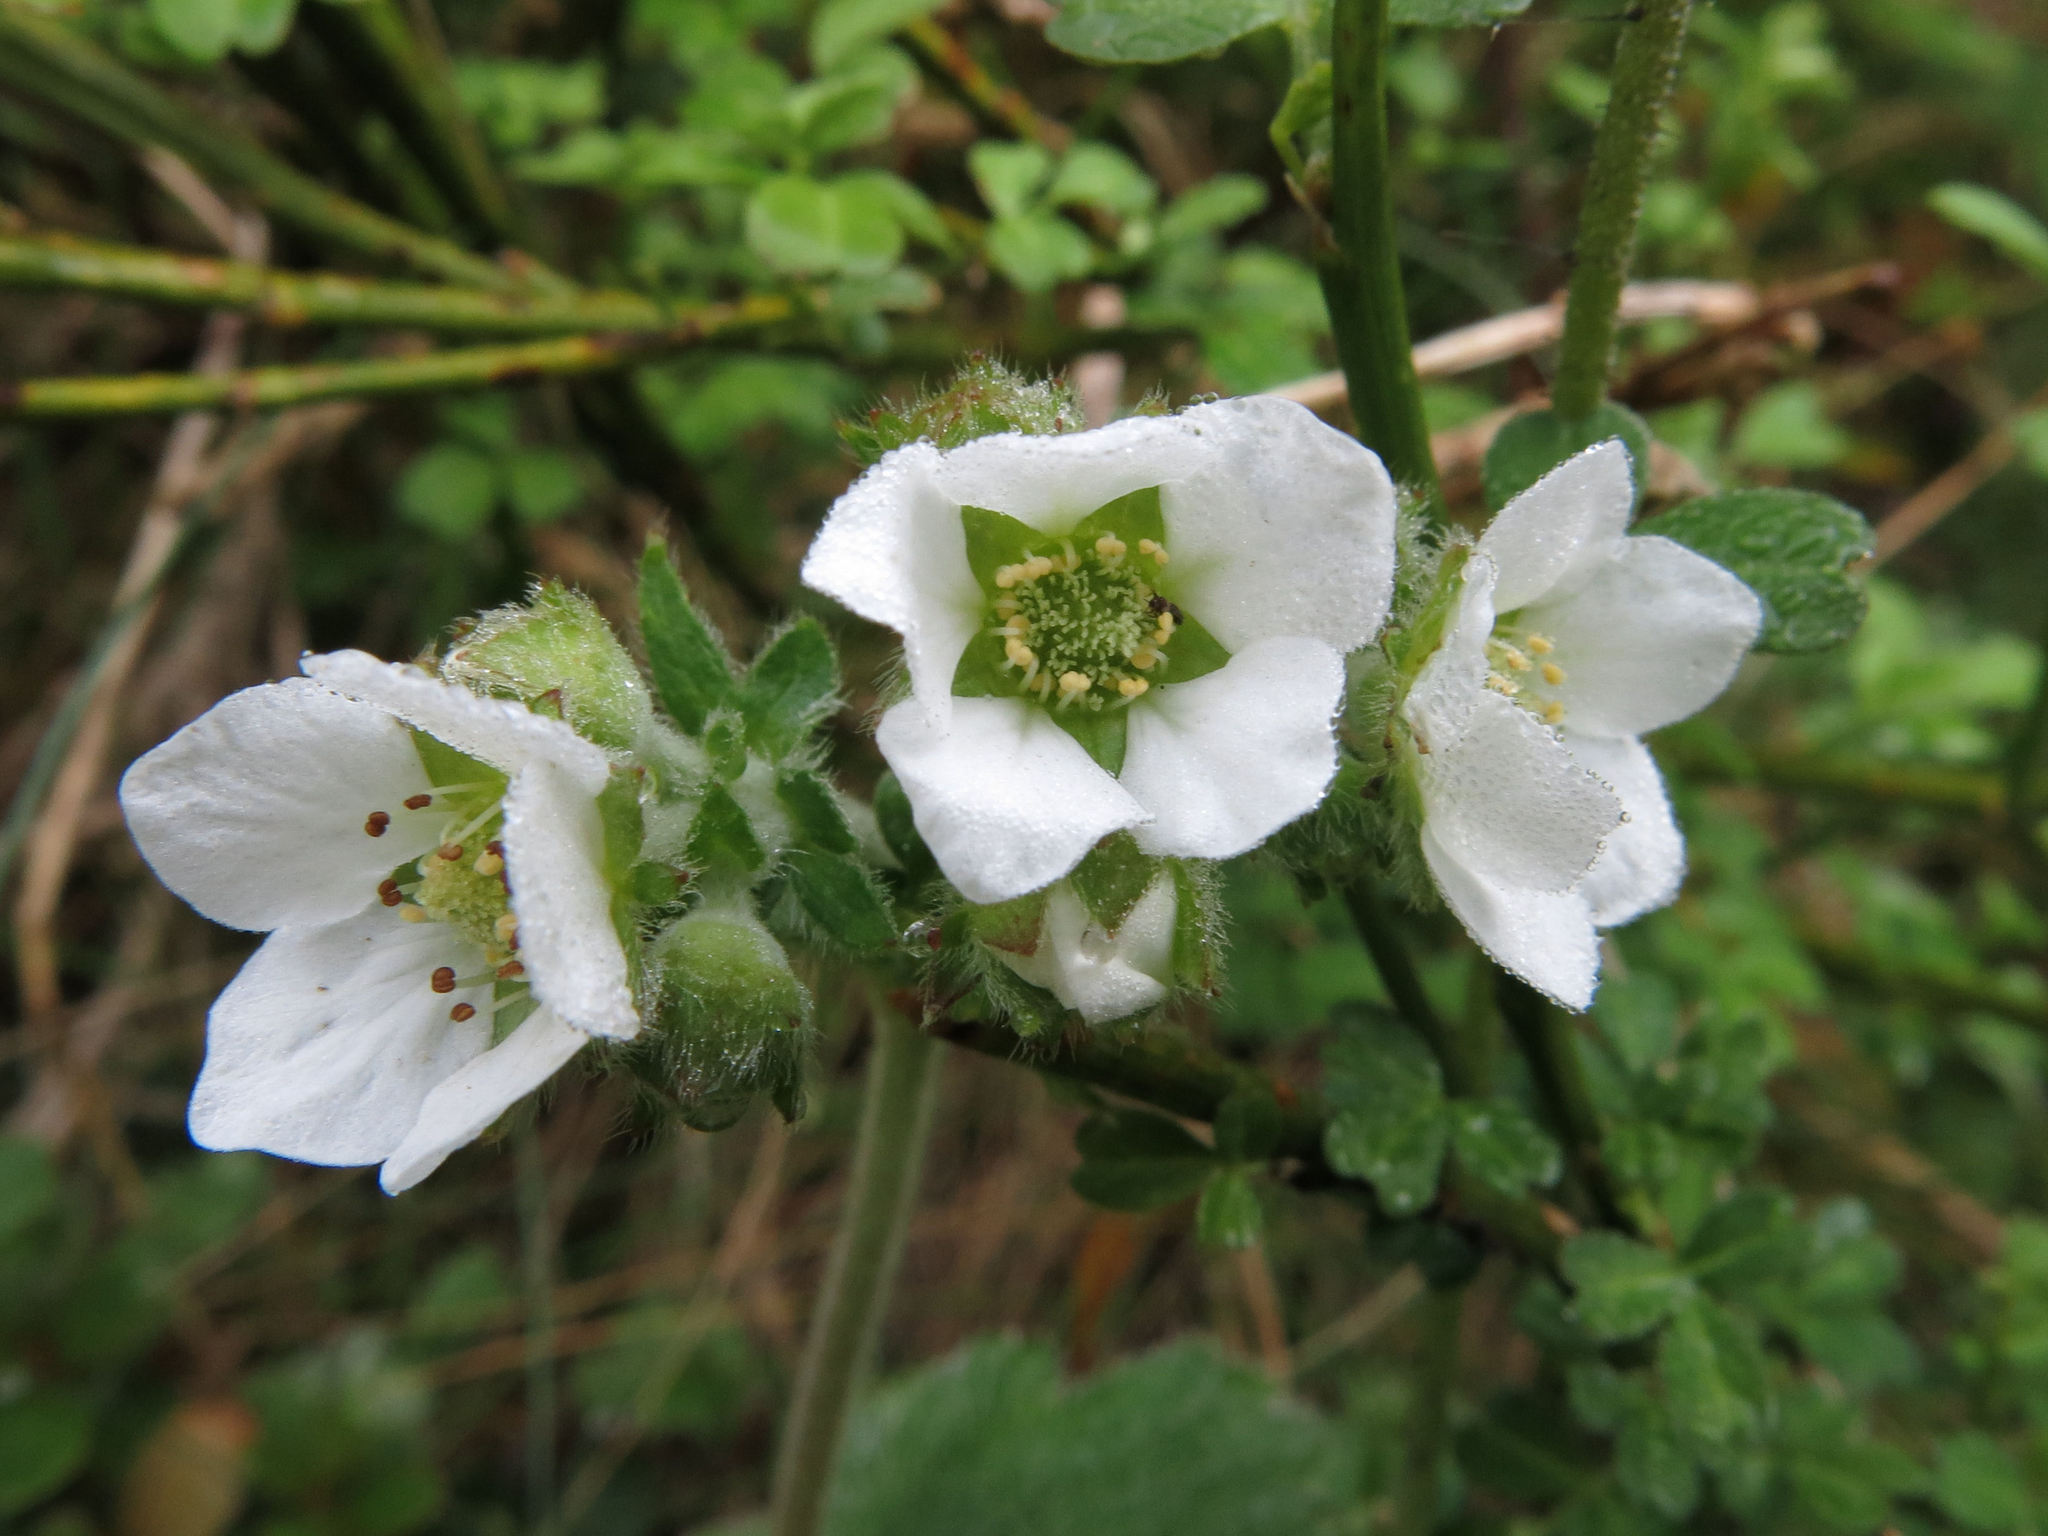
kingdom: Plantae
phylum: Tracheophyta
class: Magnoliopsida
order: Rosales
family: Rosaceae
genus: Geum
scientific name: Geum cockaynei
